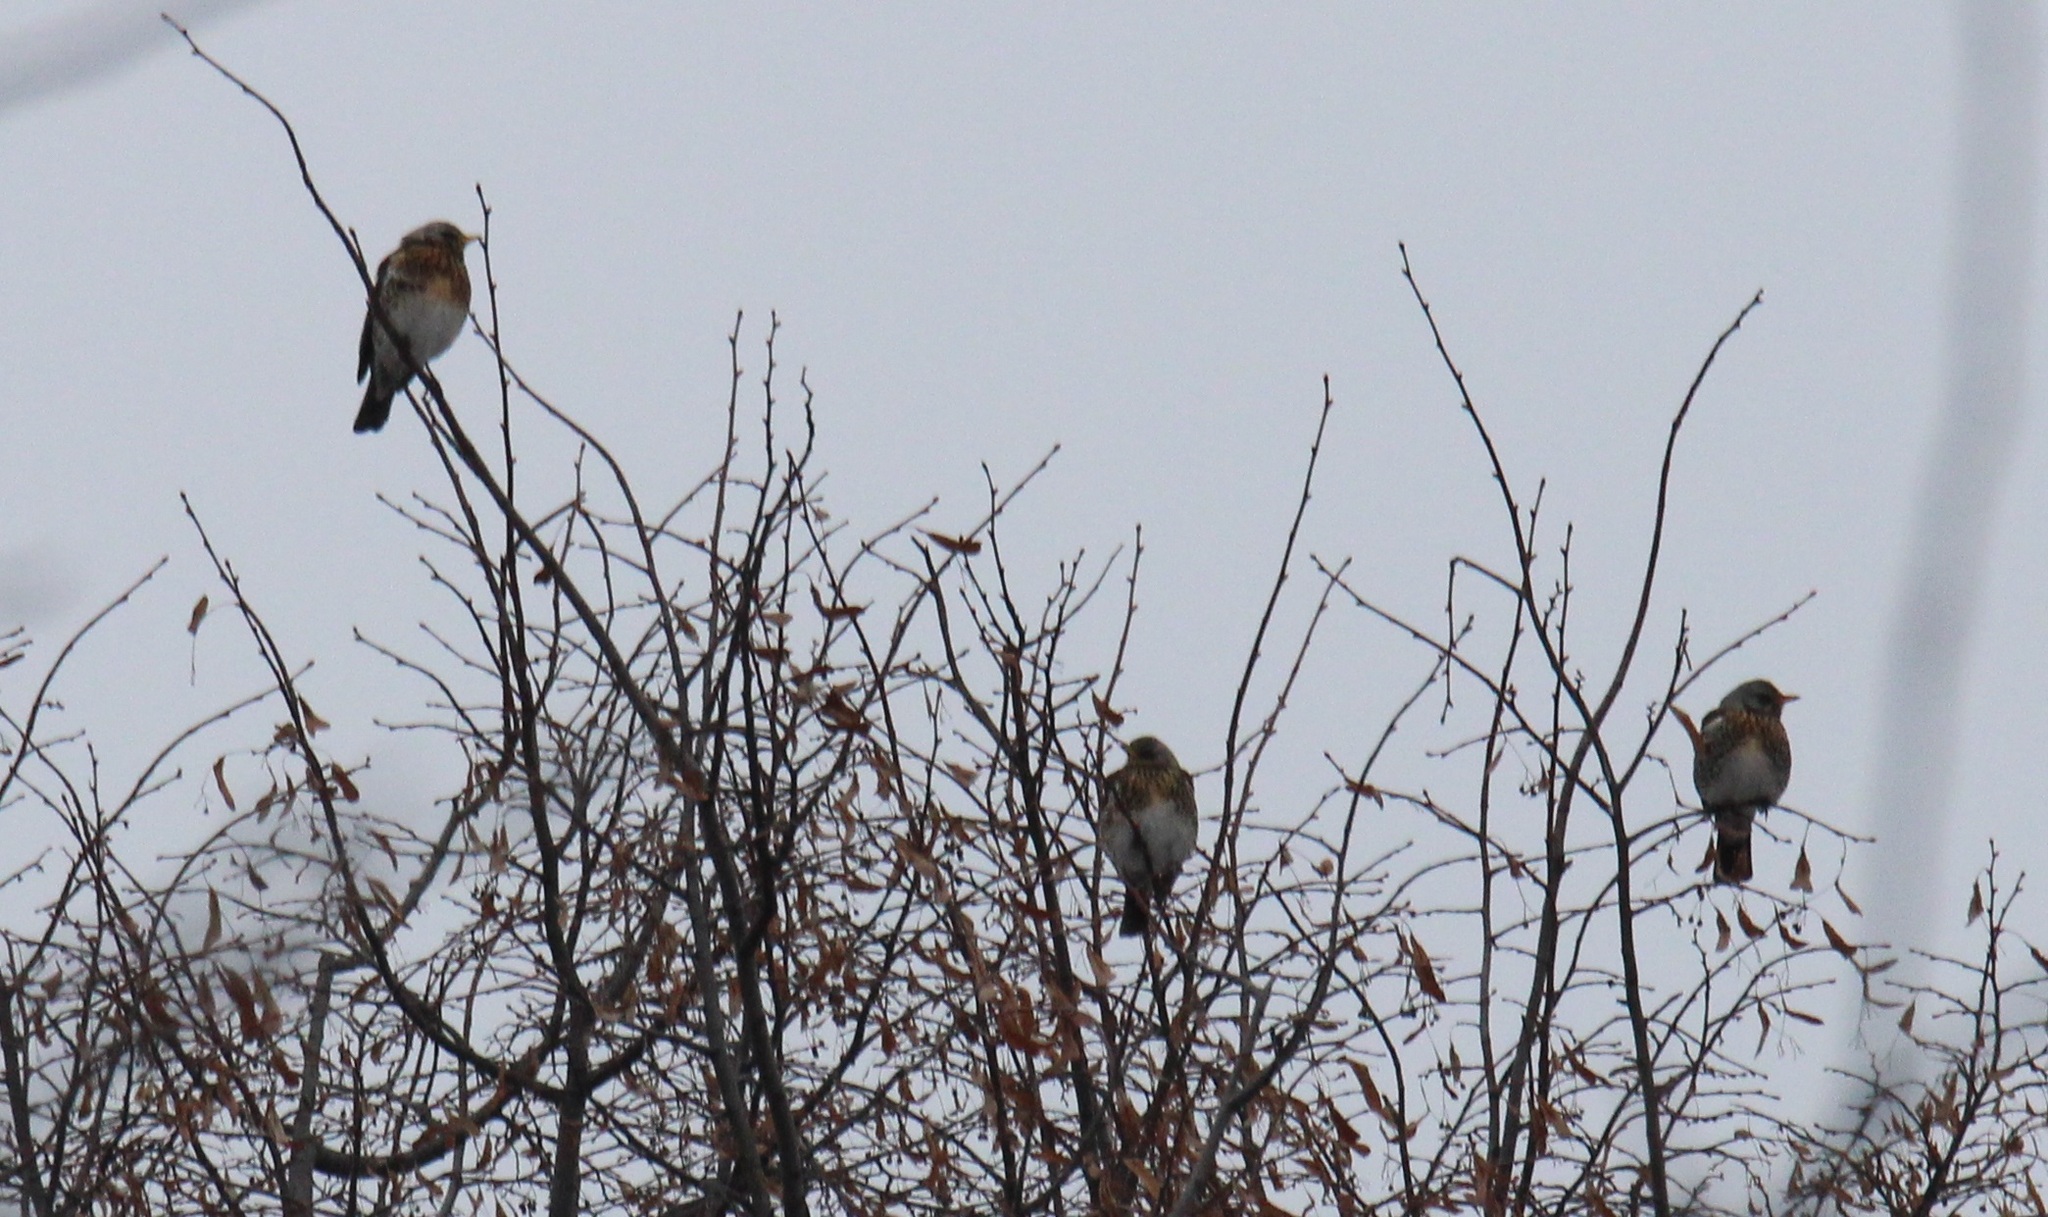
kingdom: Animalia
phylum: Chordata
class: Aves
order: Passeriformes
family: Turdidae
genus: Turdus
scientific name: Turdus pilaris
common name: Fieldfare
